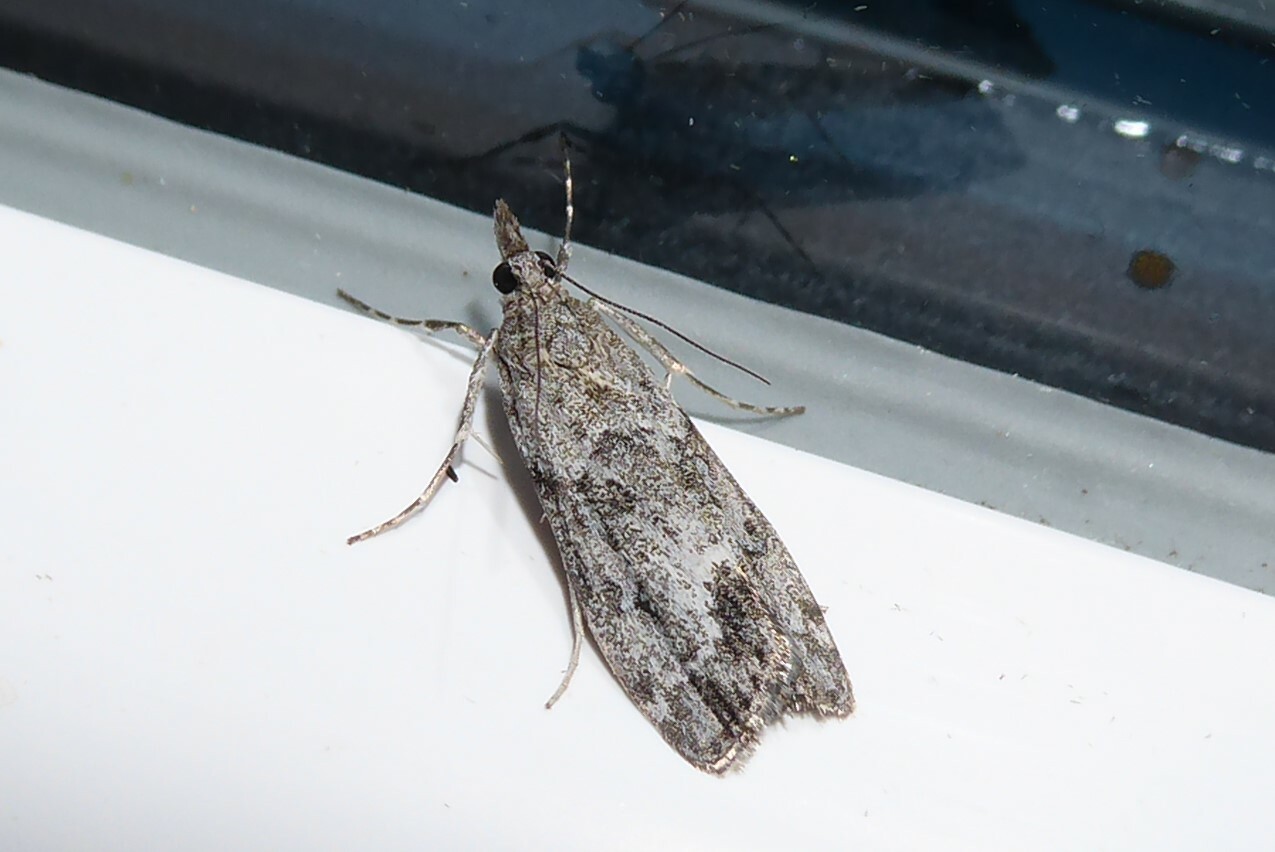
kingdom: Animalia
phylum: Arthropoda
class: Insecta
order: Lepidoptera
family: Crambidae
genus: Eudonia
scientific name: Eudonia rakaiensis
